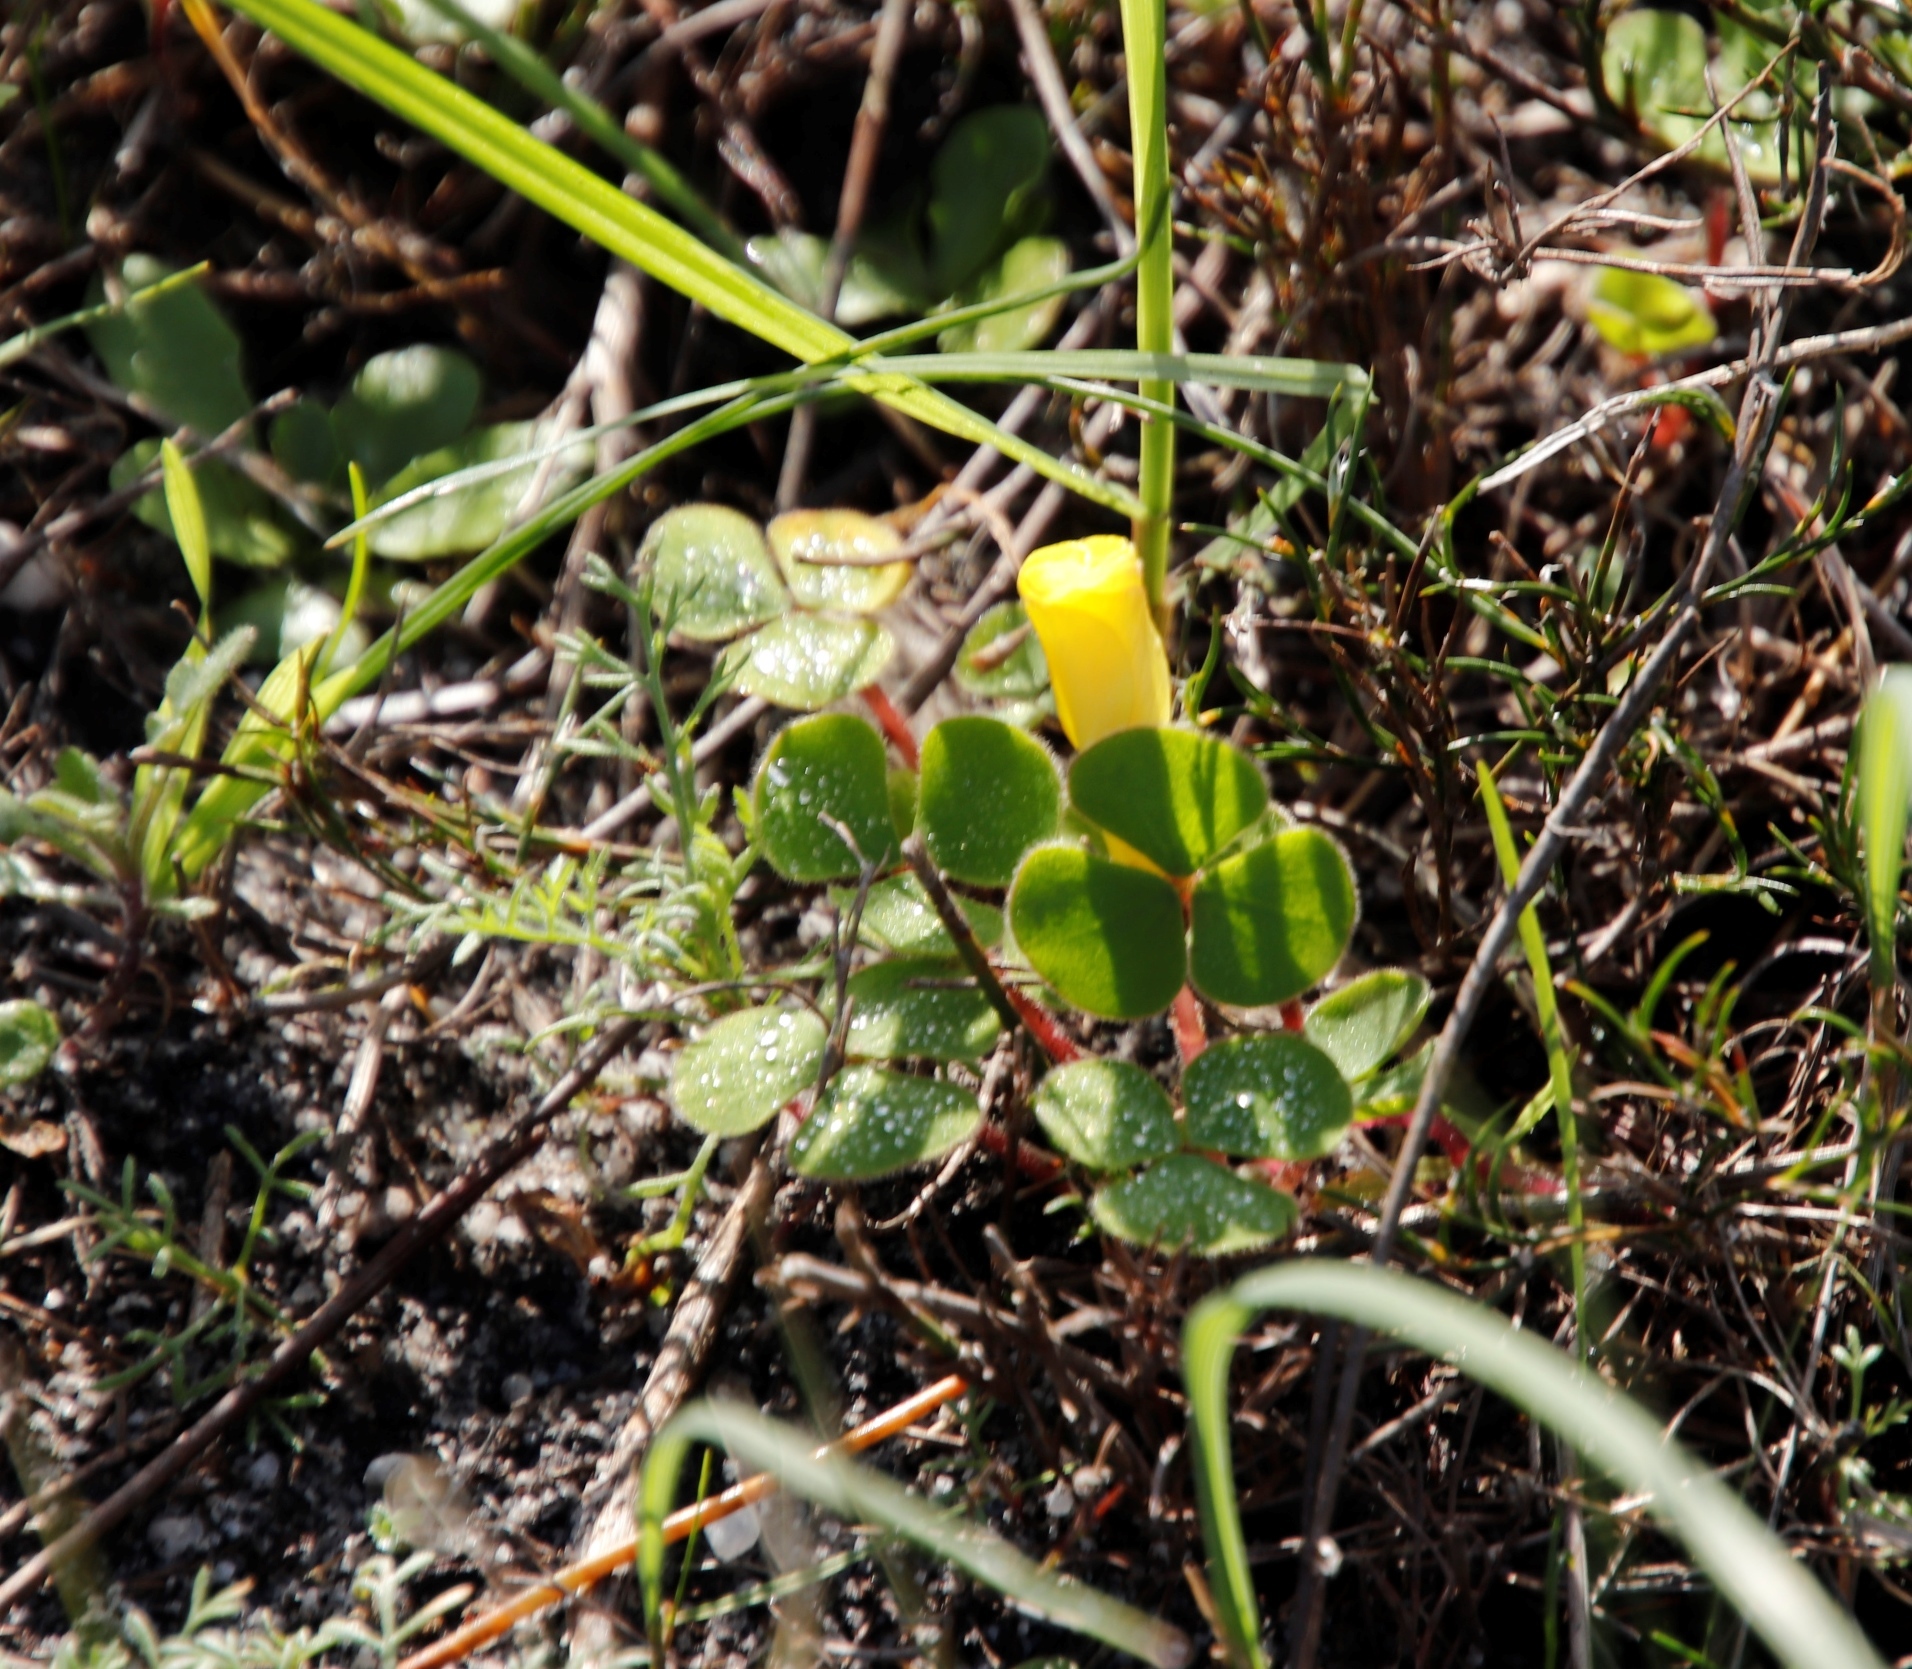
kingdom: Plantae
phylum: Tracheophyta
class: Magnoliopsida
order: Oxalidales
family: Oxalidaceae
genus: Oxalis
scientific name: Oxalis luteola
